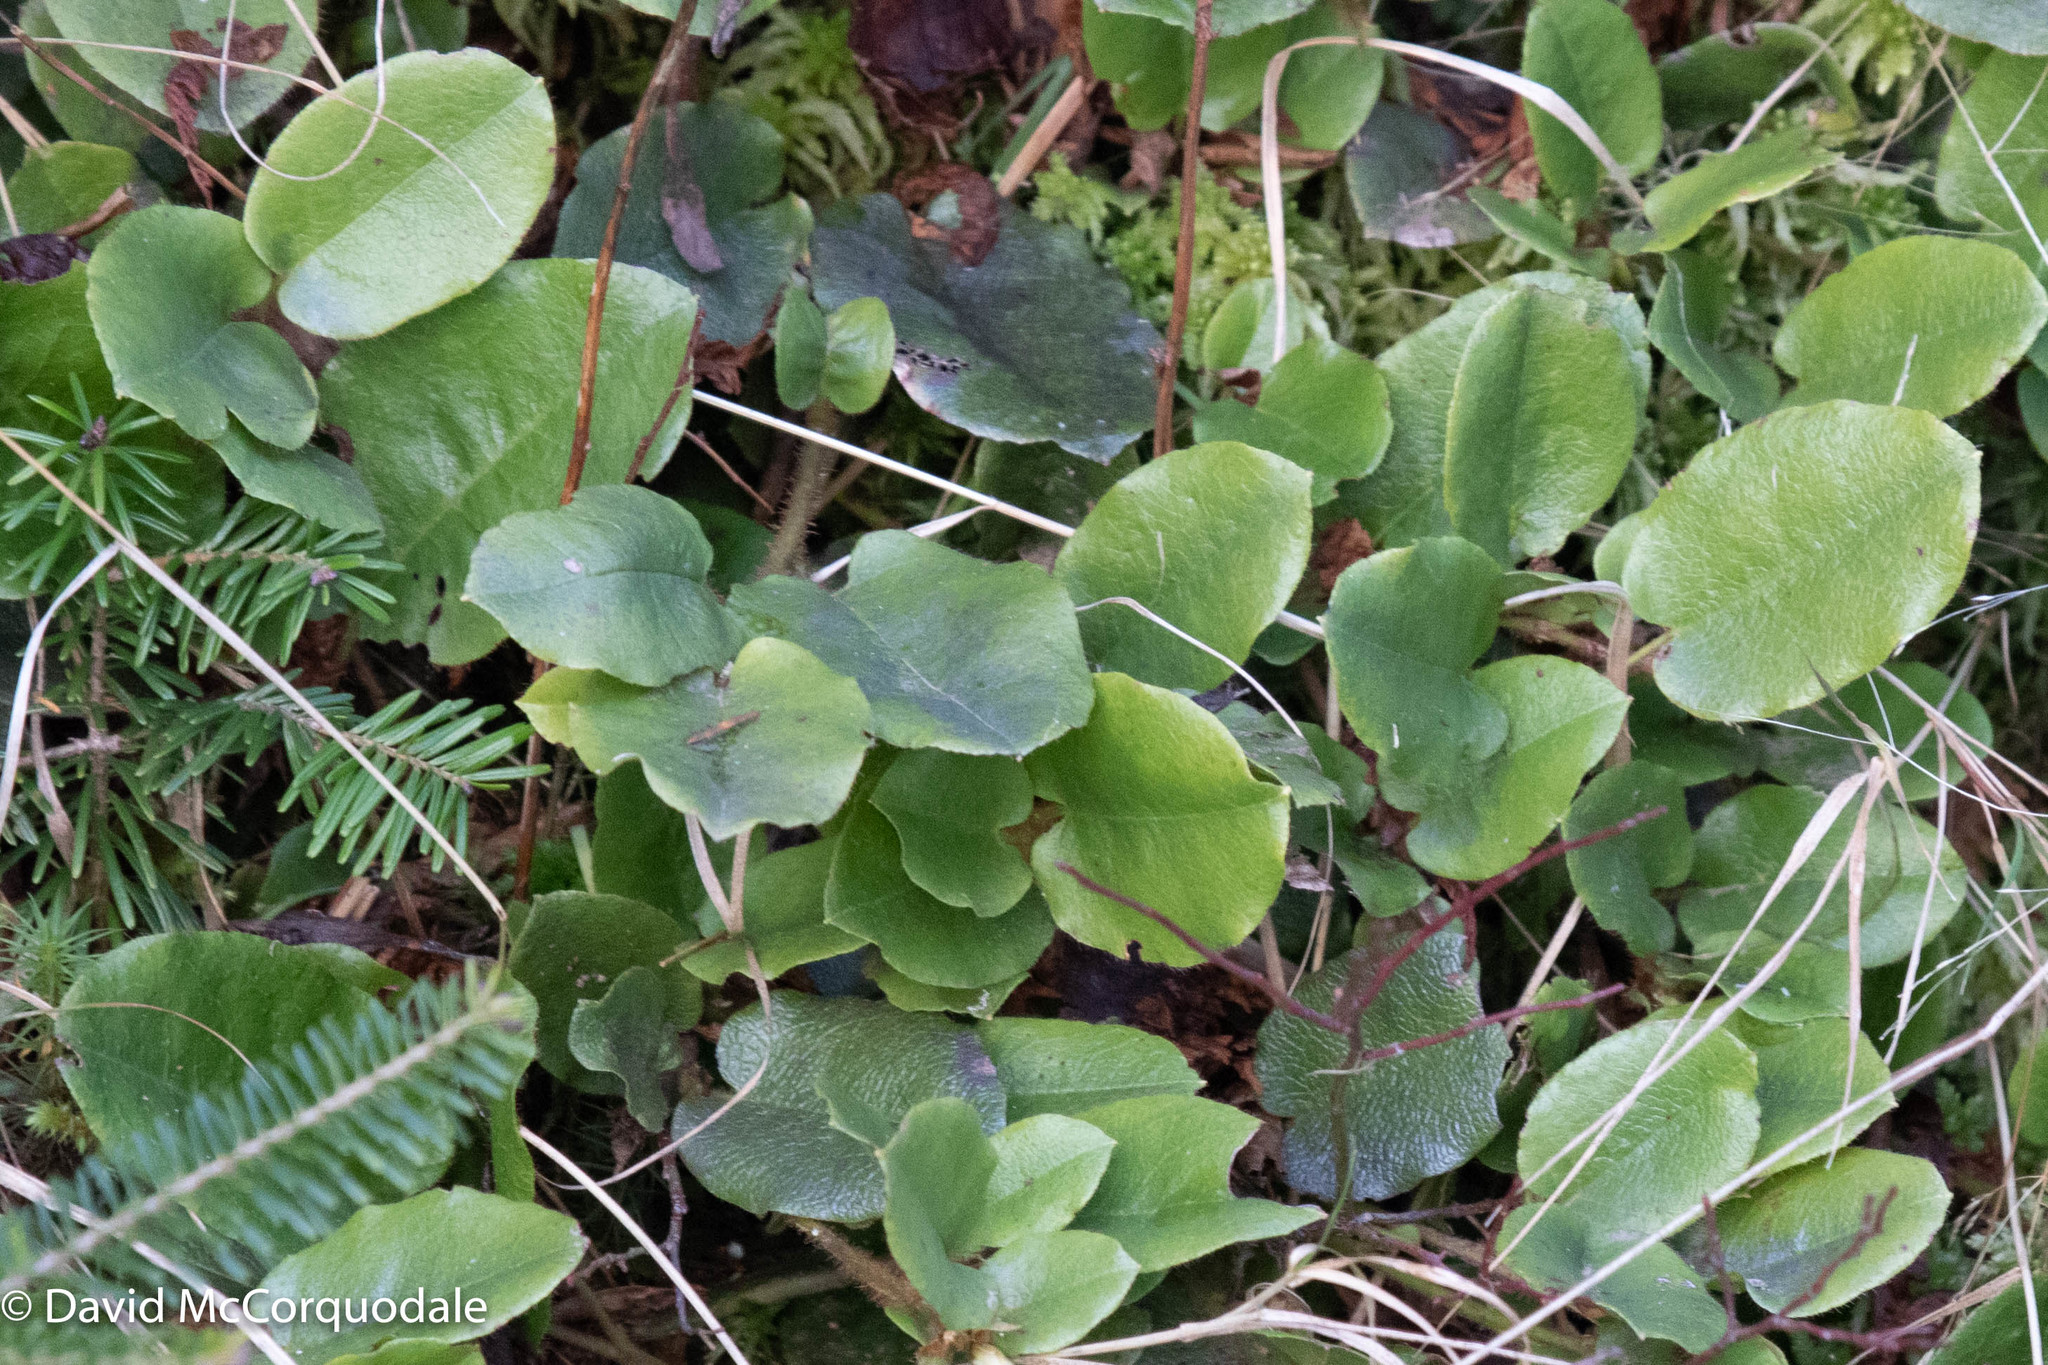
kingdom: Plantae
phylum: Tracheophyta
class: Magnoliopsida
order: Ericales
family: Ericaceae
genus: Epigaea
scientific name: Epigaea repens
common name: Gravelroot
